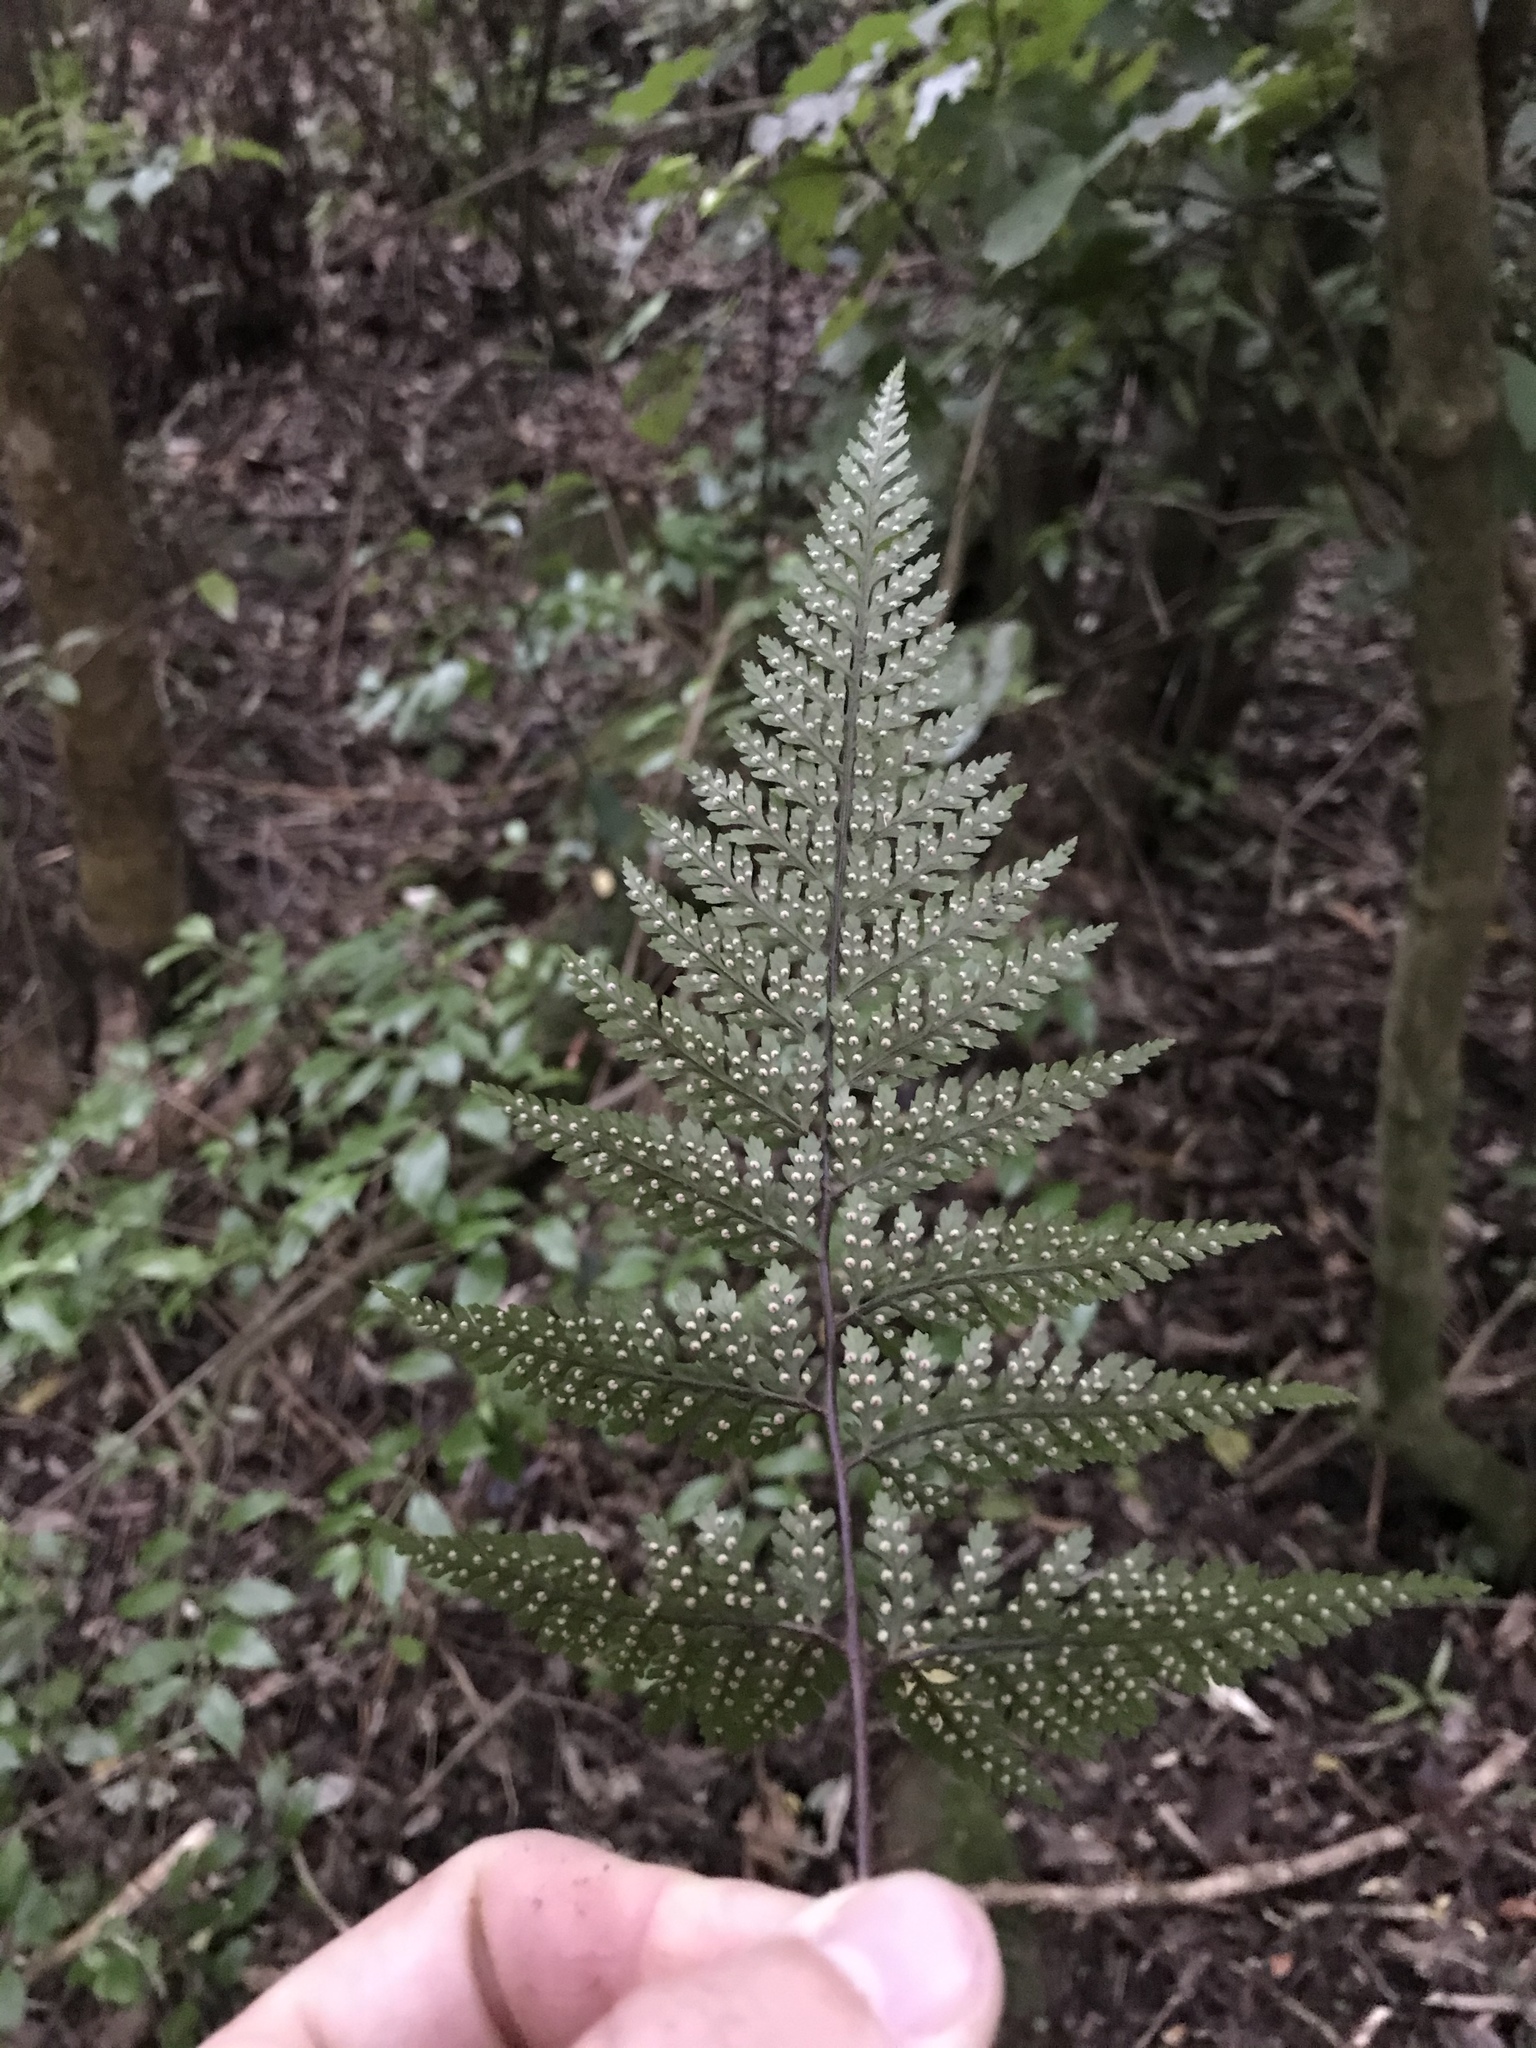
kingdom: Plantae
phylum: Tracheophyta
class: Polypodiopsida
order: Polypodiales
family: Dryopteridaceae
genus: Parapolystichum
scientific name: Parapolystichum glabellum
